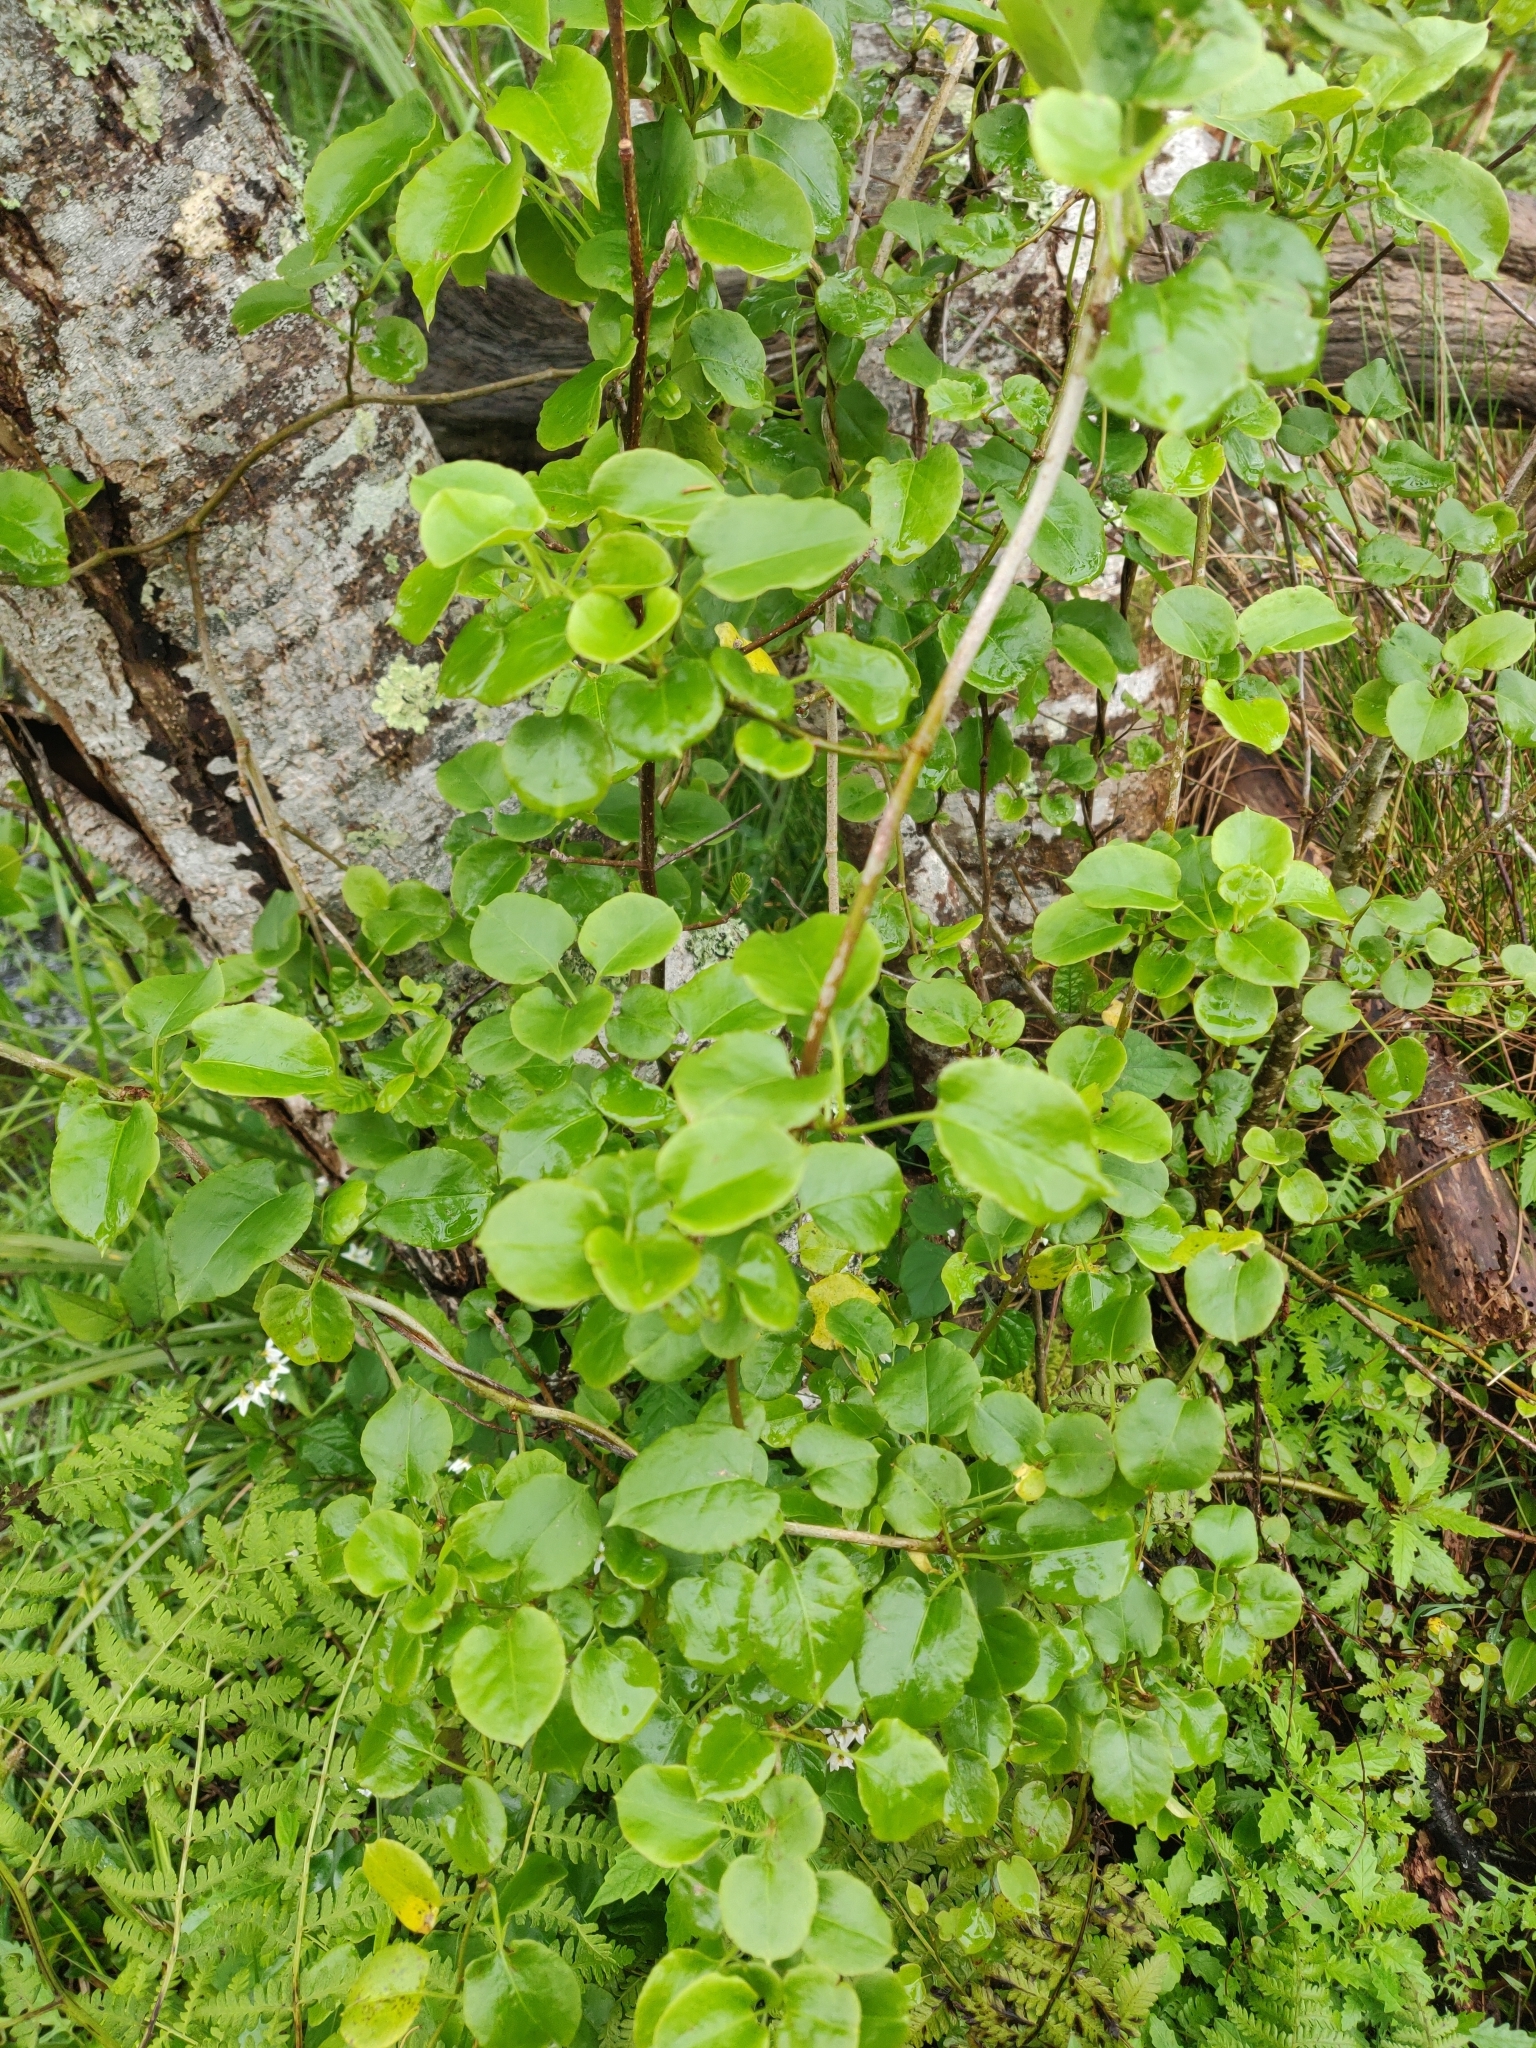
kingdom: Plantae
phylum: Tracheophyta
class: Magnoliopsida
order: Caryophyllales
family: Polygonaceae
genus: Muehlenbeckia
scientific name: Muehlenbeckia australis
